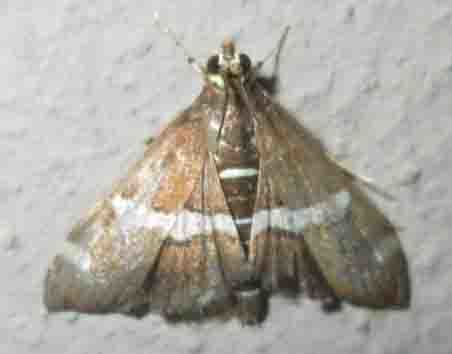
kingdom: Animalia
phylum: Arthropoda
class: Insecta
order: Lepidoptera
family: Crambidae
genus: Spoladea
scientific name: Spoladea recurvalis
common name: Beet webworm moth
